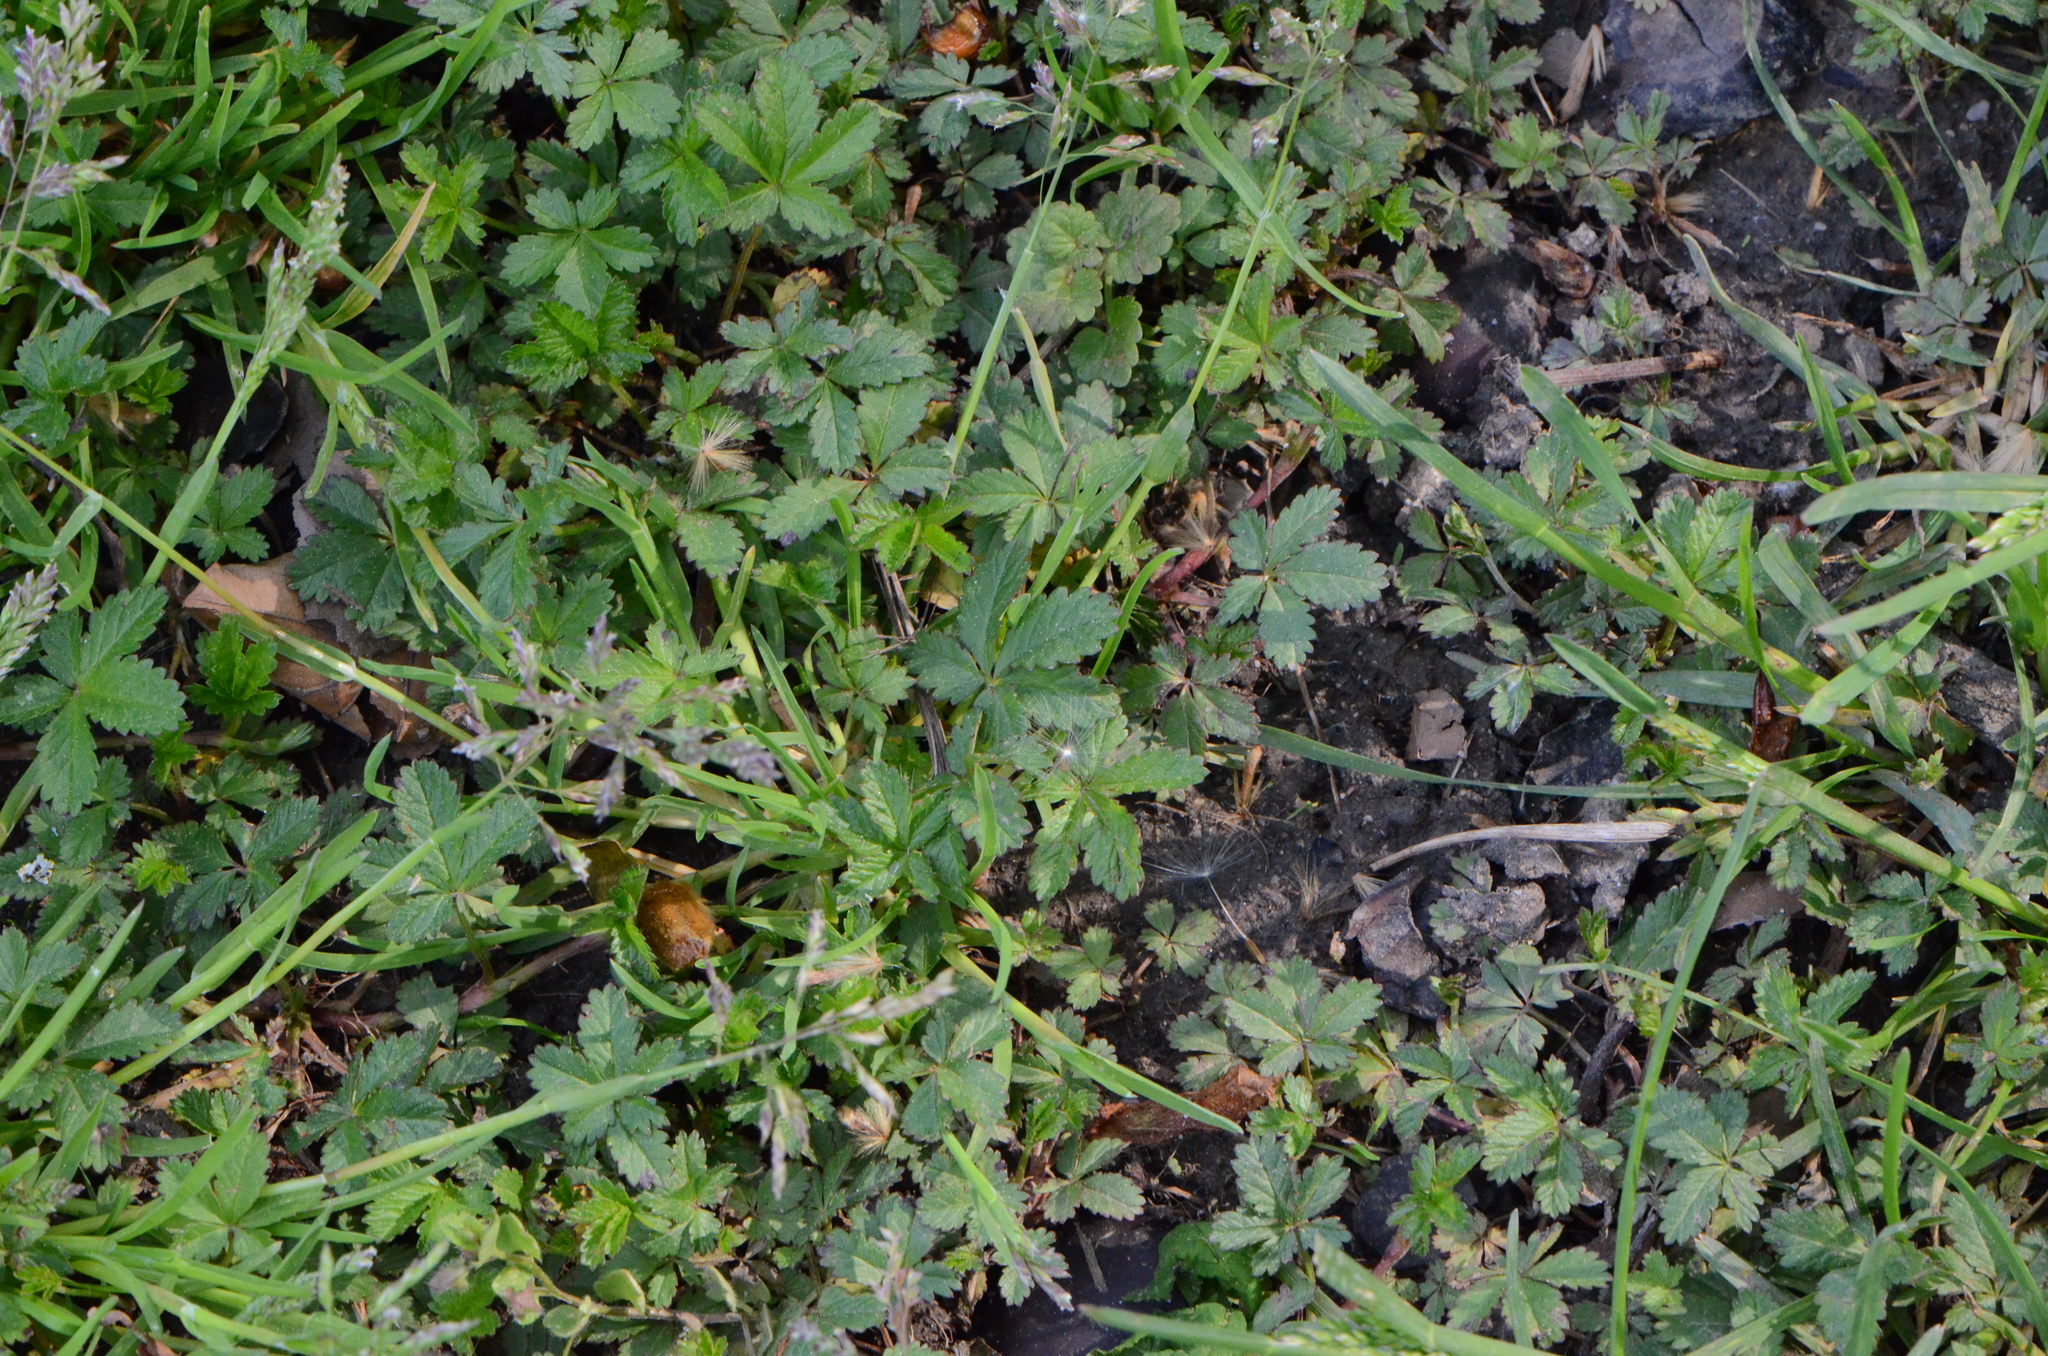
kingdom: Plantae
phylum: Tracheophyta
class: Magnoliopsida
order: Rosales
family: Rosaceae
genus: Potentilla
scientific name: Potentilla reptans
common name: Creeping cinquefoil
